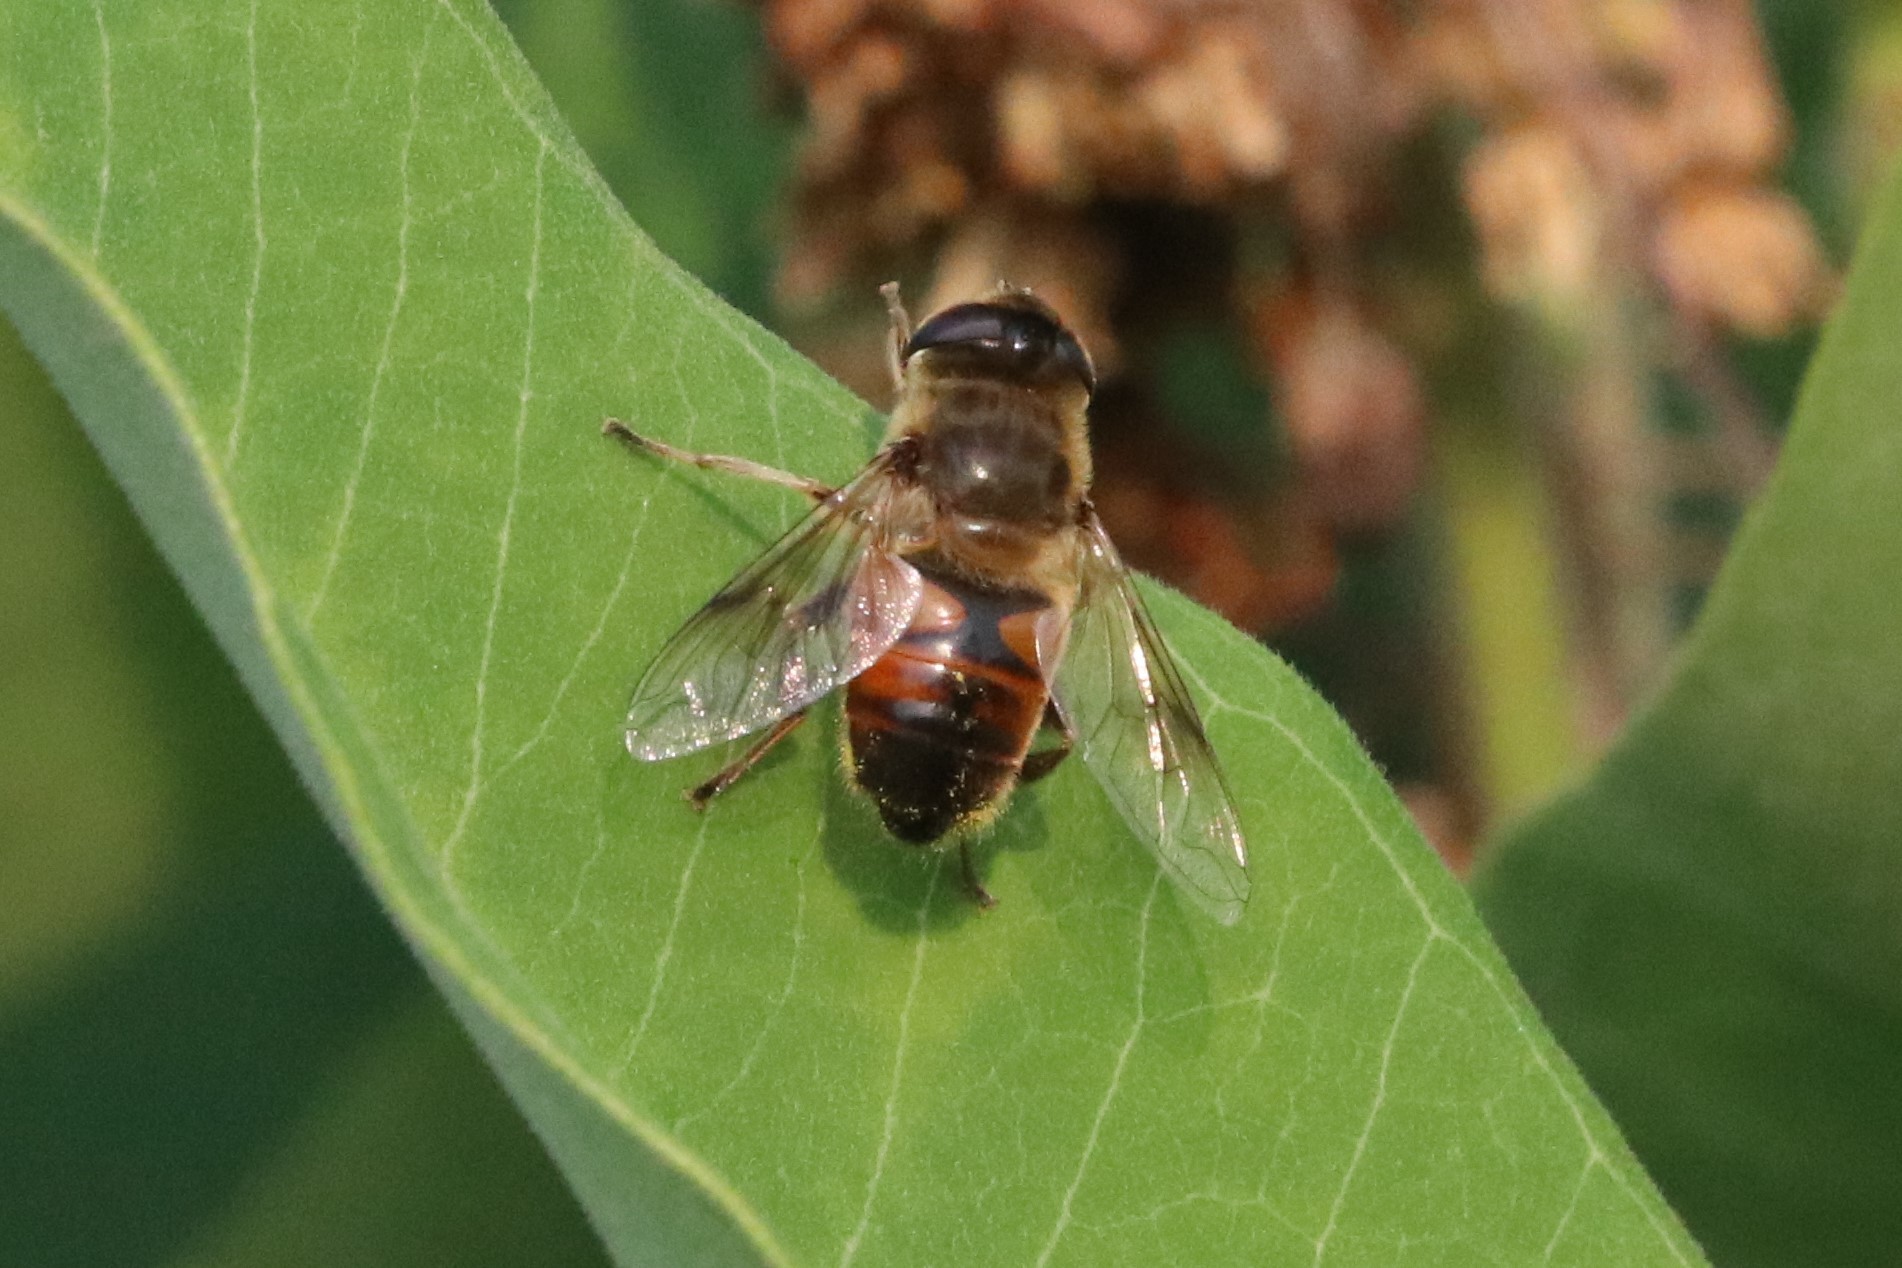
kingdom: Animalia
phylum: Arthropoda
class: Insecta
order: Diptera
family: Syrphidae
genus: Eristalis
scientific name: Eristalis tenax
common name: Drone fly
